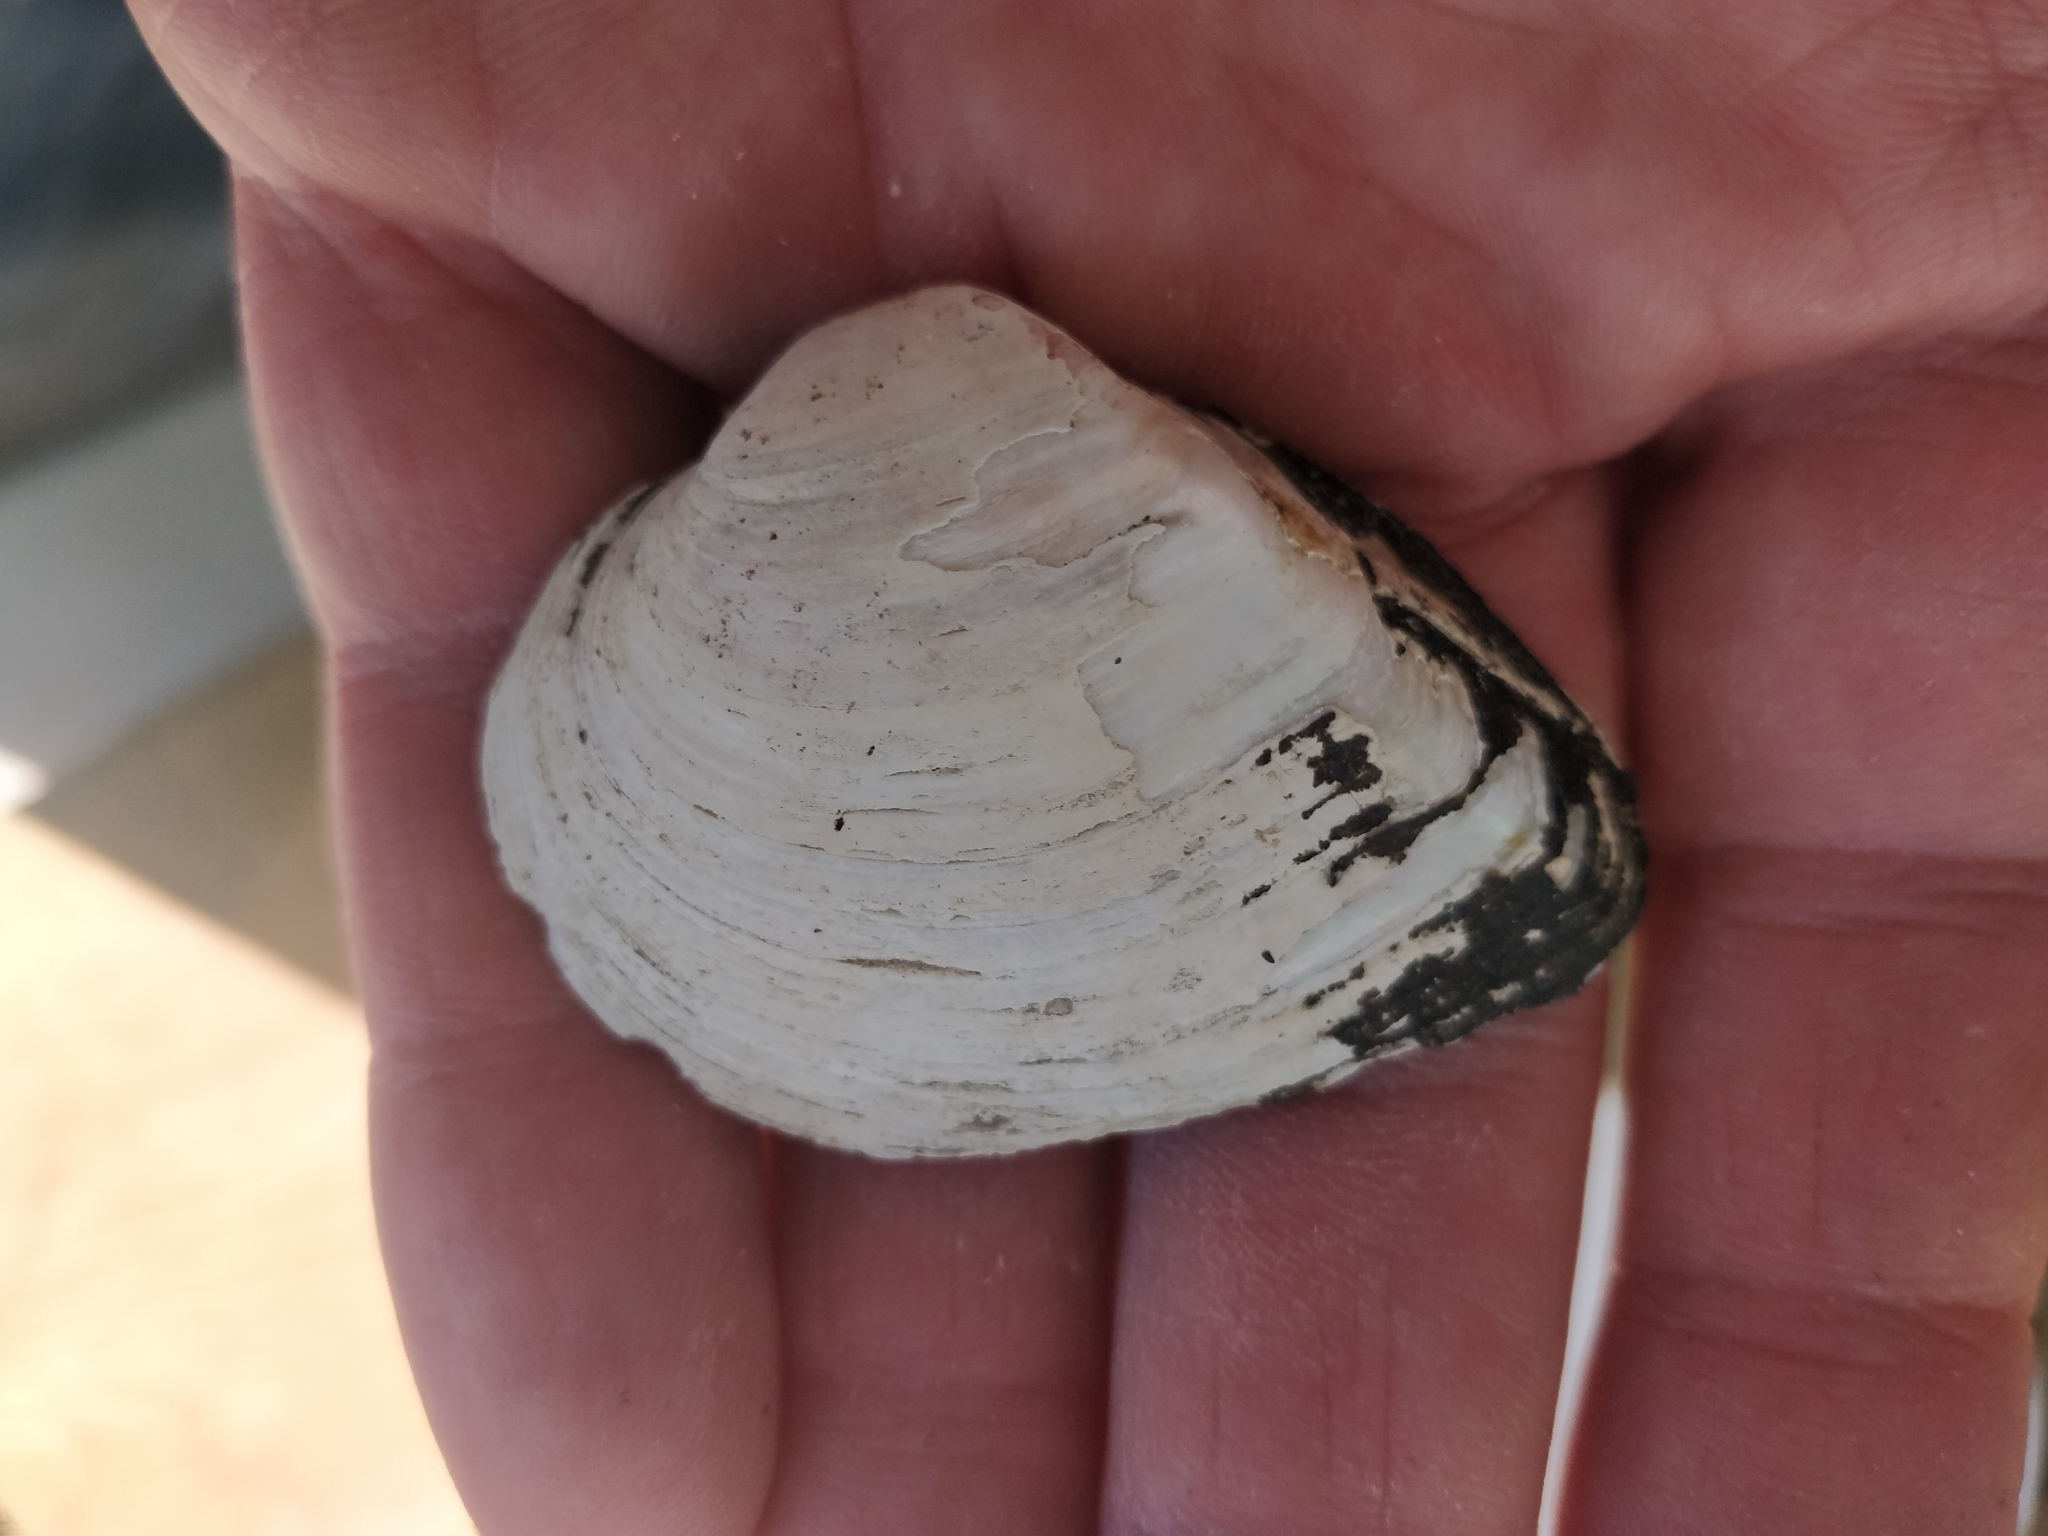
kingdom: Animalia
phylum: Mollusca
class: Bivalvia
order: Unionida
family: Unionidae
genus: Truncilla
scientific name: Truncilla truncata
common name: Deertoe
